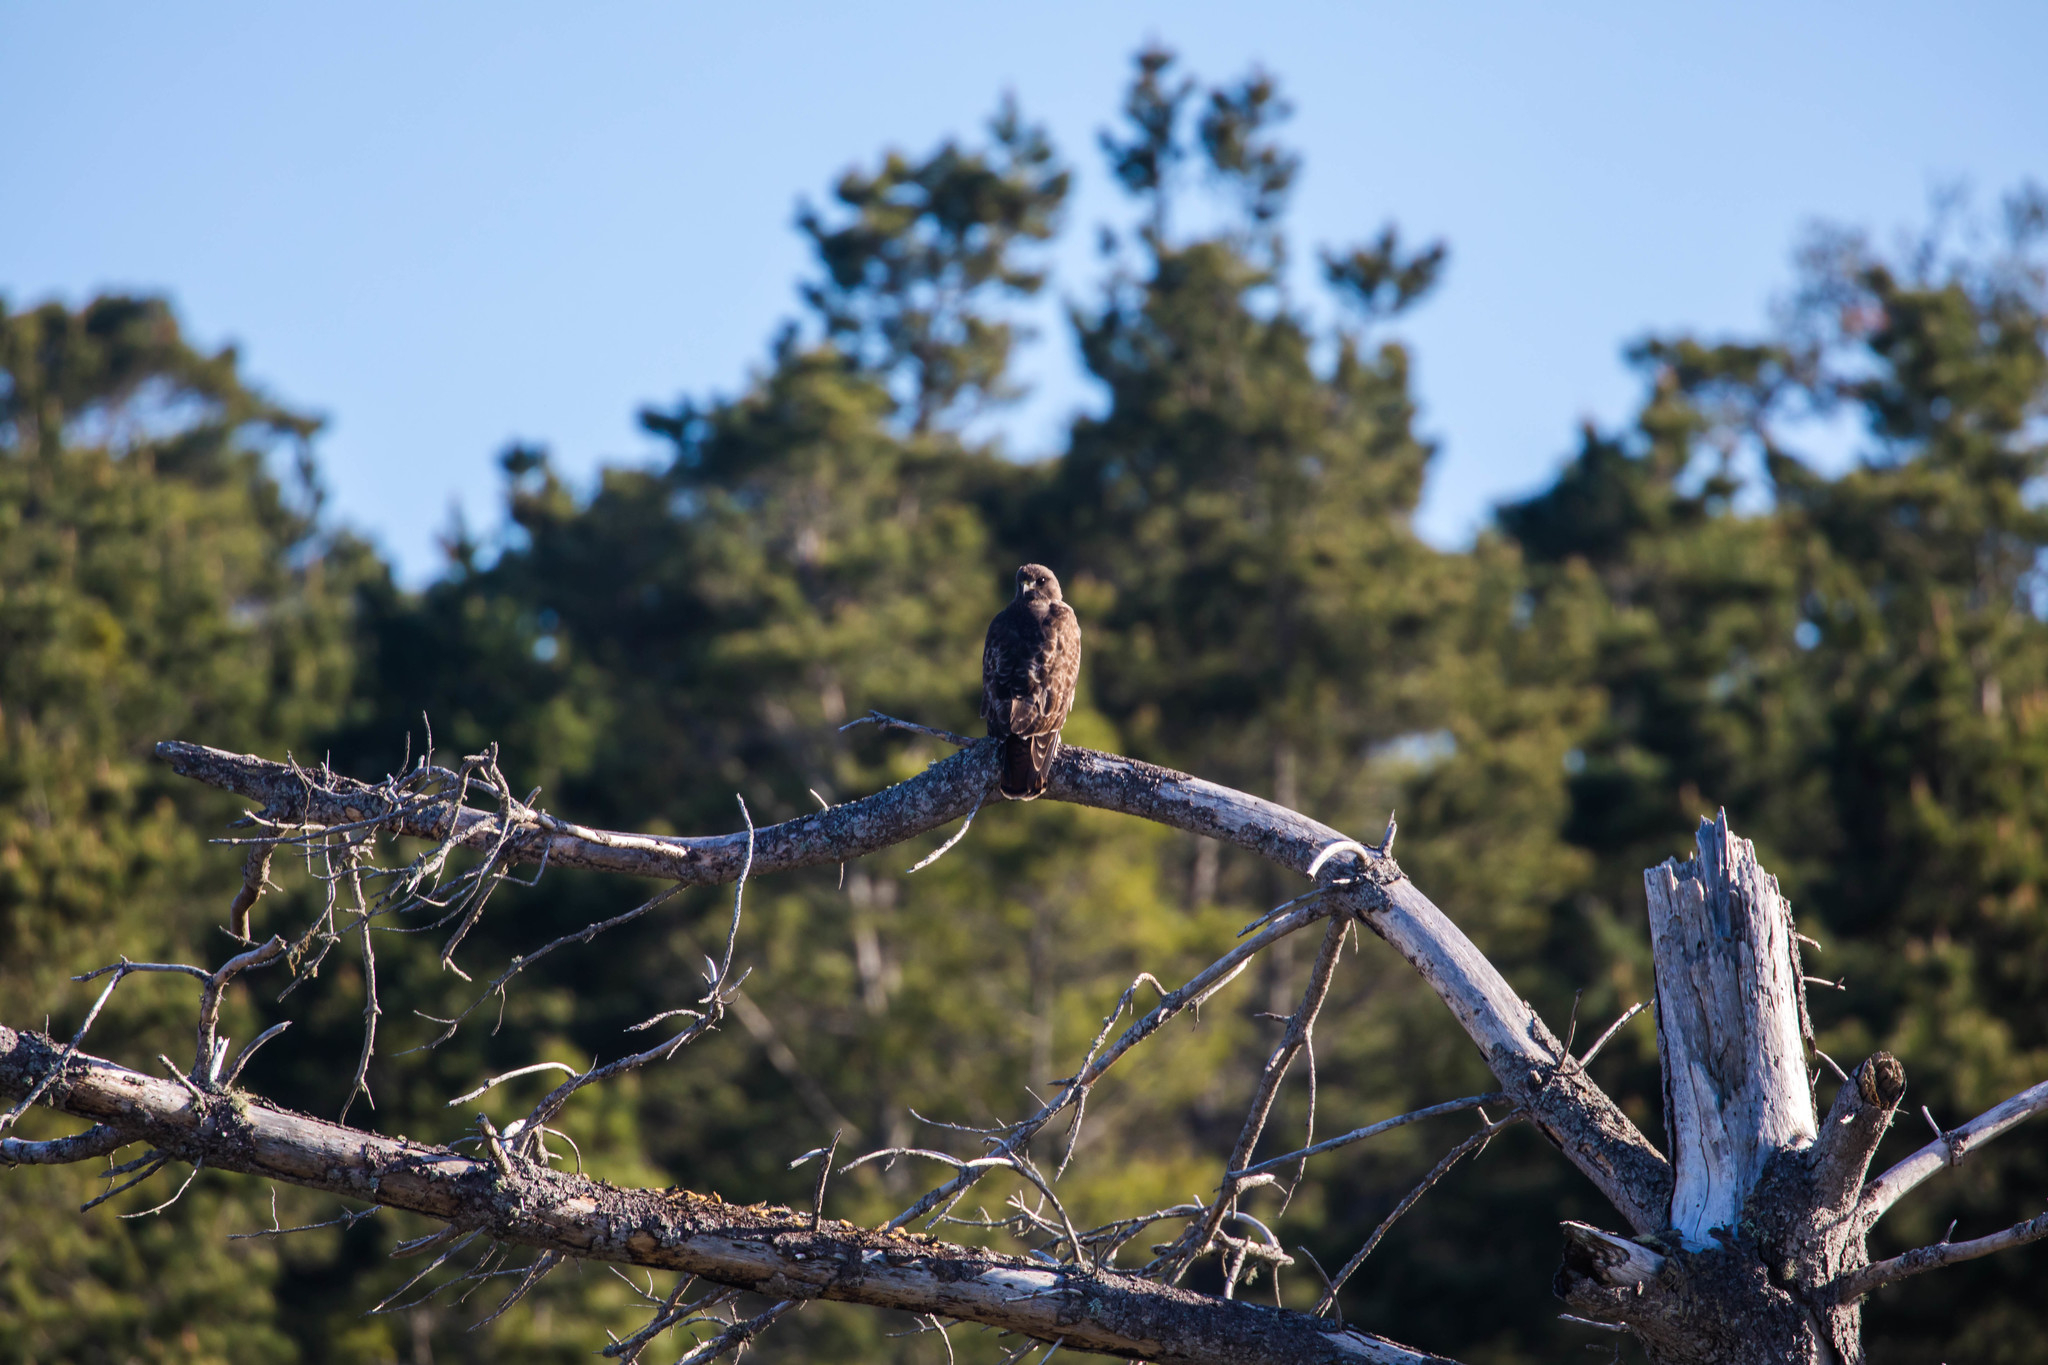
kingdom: Animalia
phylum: Chordata
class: Aves
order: Accipitriformes
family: Accipitridae
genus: Buteo
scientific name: Buteo jamaicensis
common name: Red-tailed hawk
